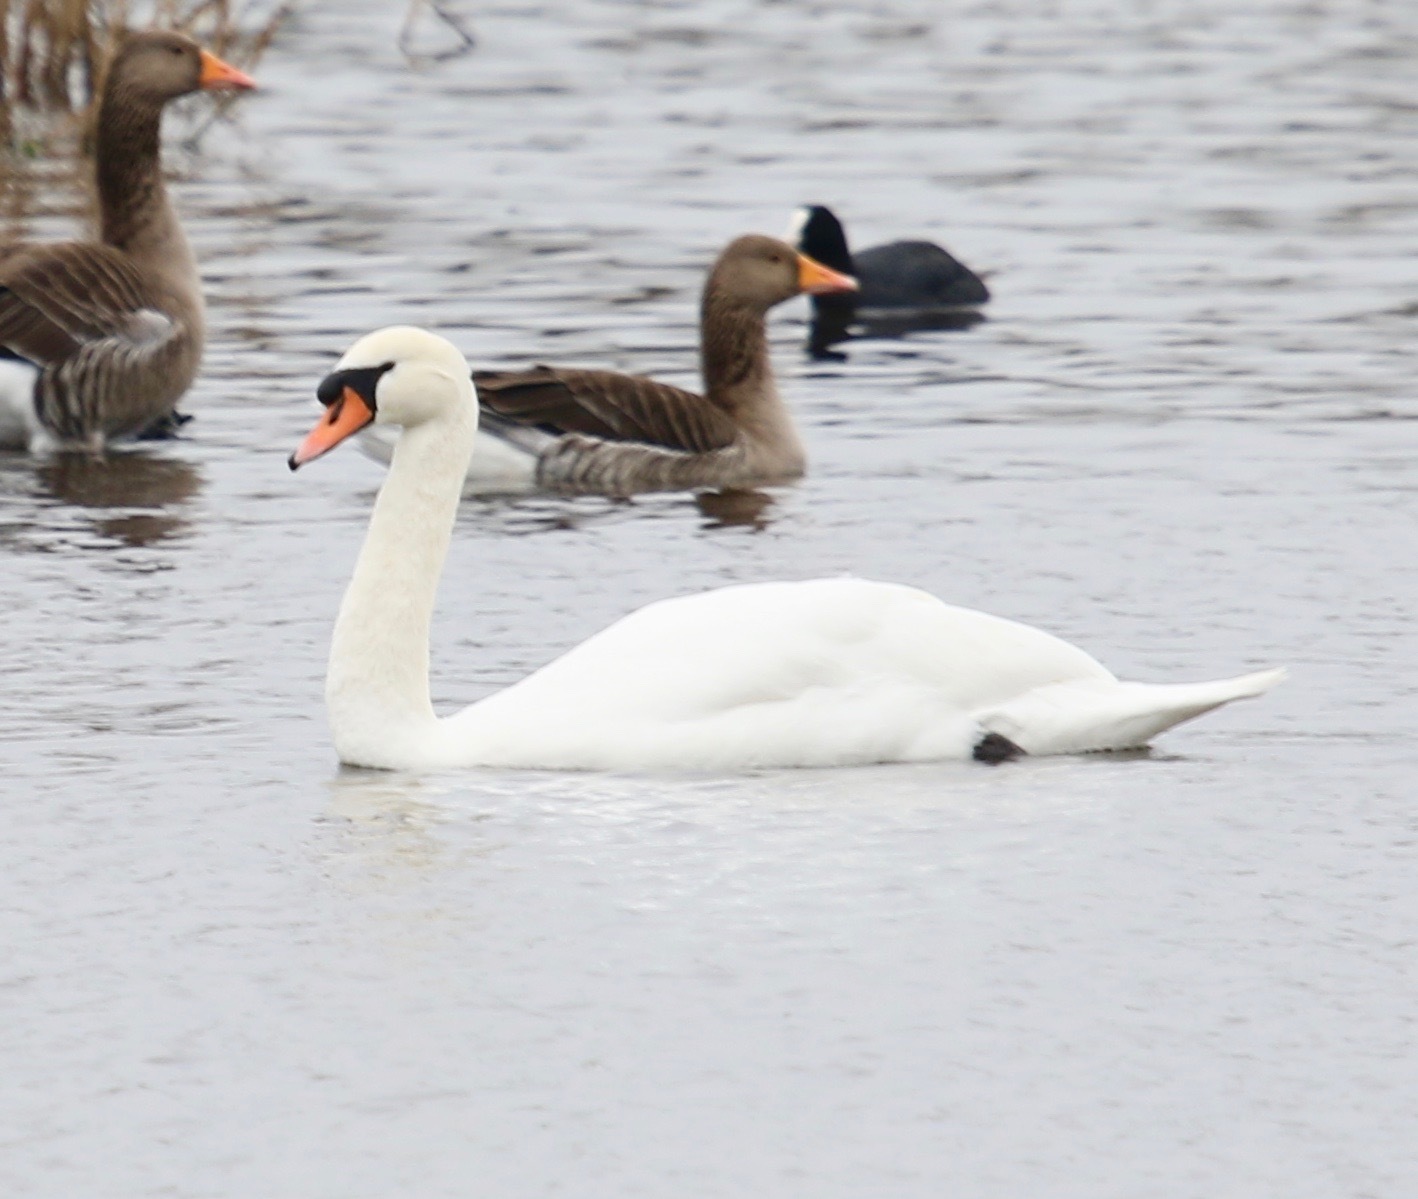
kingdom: Animalia
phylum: Chordata
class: Aves
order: Anseriformes
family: Anatidae
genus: Cygnus
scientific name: Cygnus olor
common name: Mute swan
